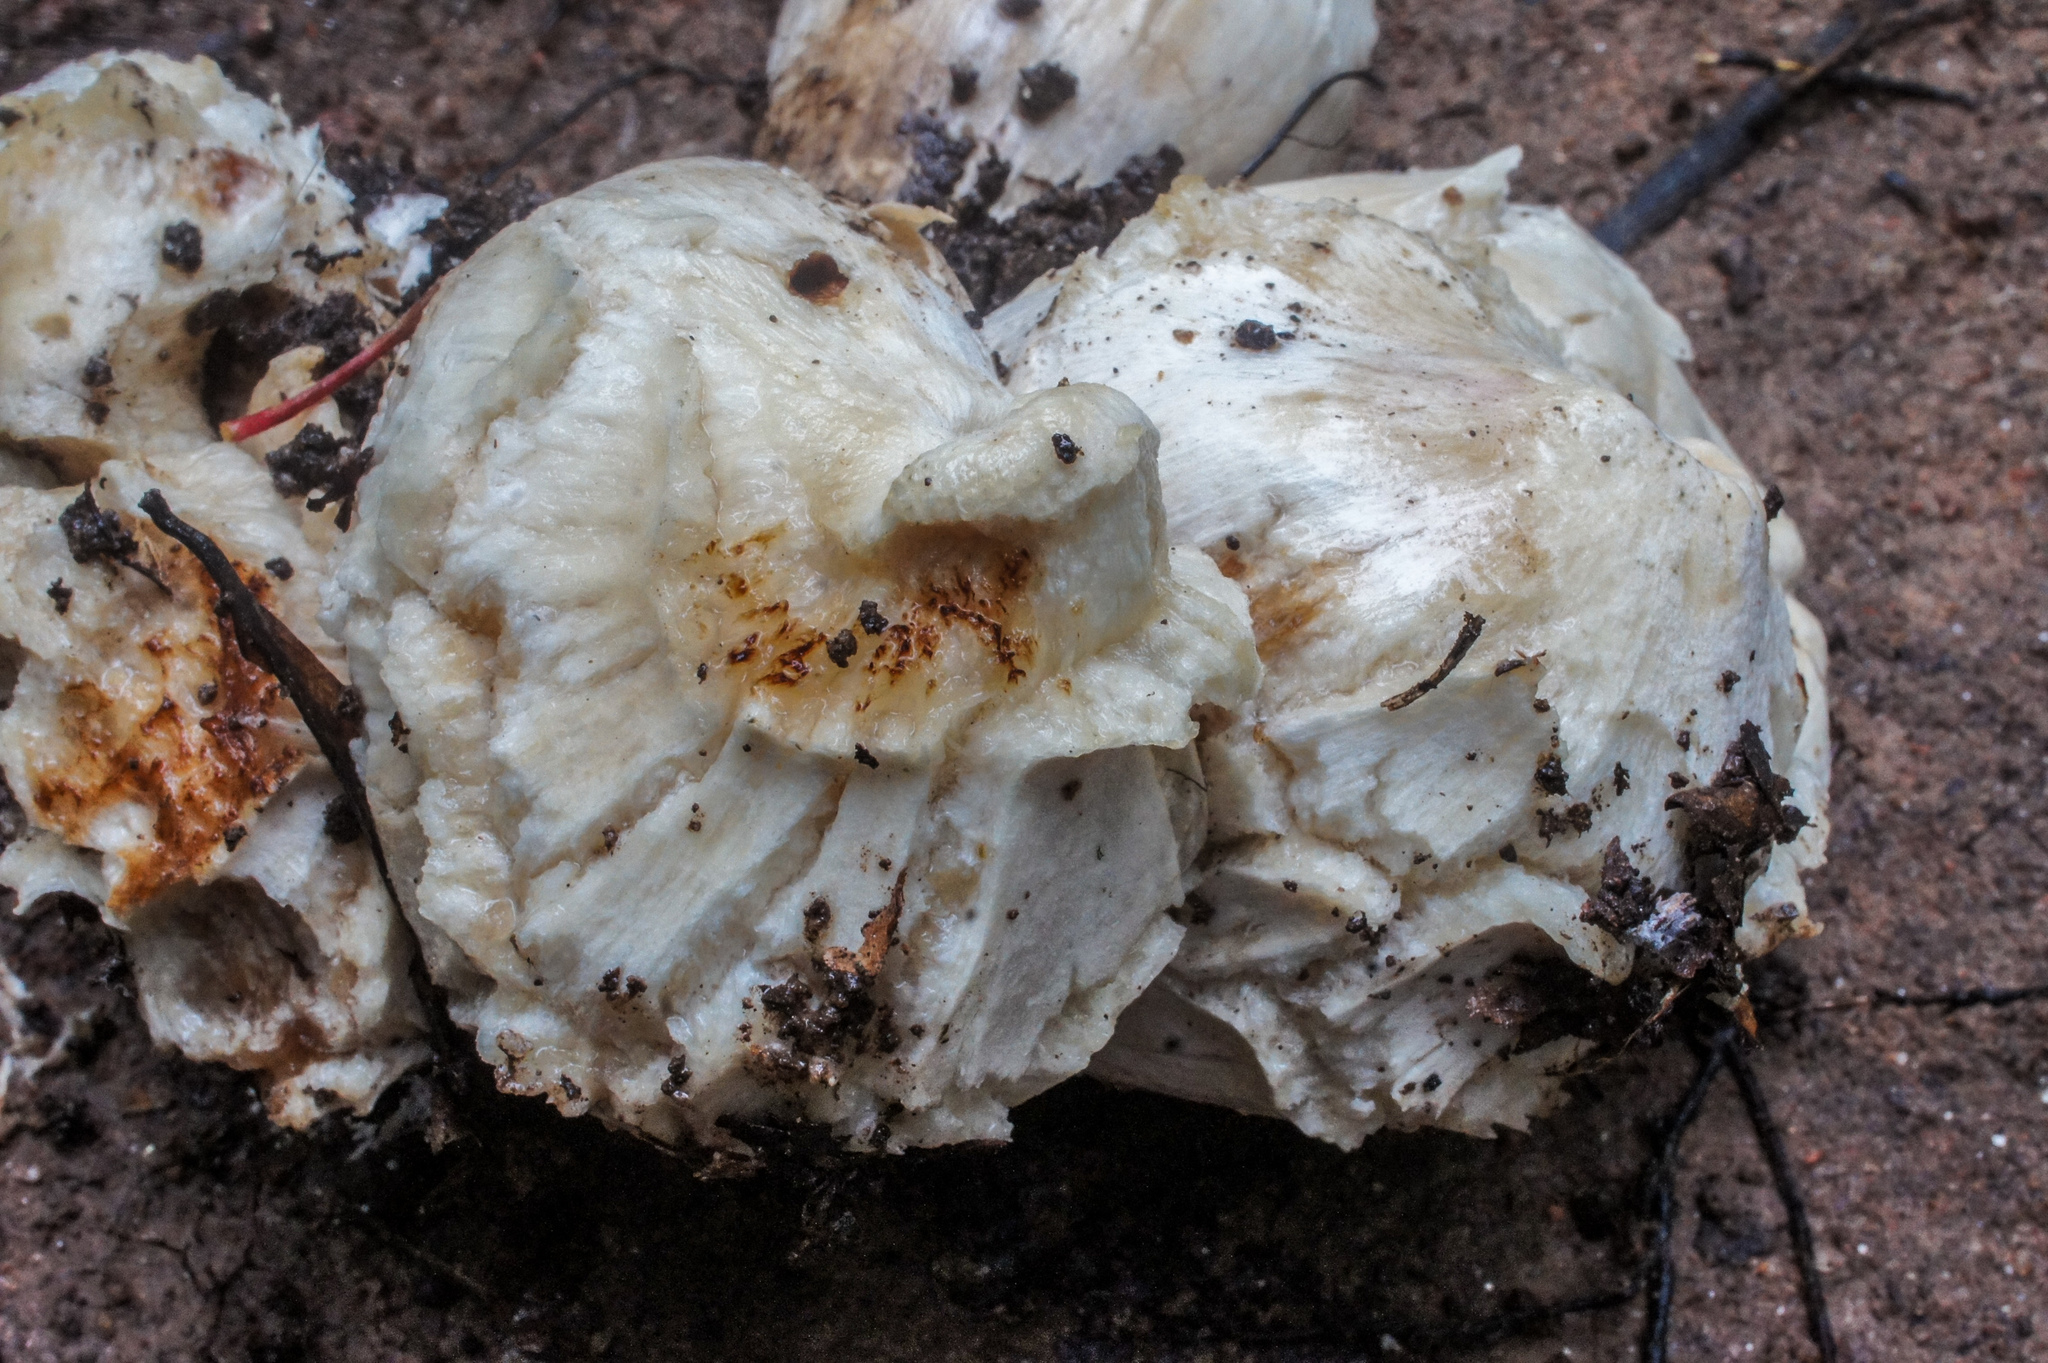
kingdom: Fungi
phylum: Basidiomycota
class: Agaricomycetes
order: Agaricales
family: Entolomataceae
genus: Entoloma
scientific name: Entoloma abortivum
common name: Aborted entoloma
